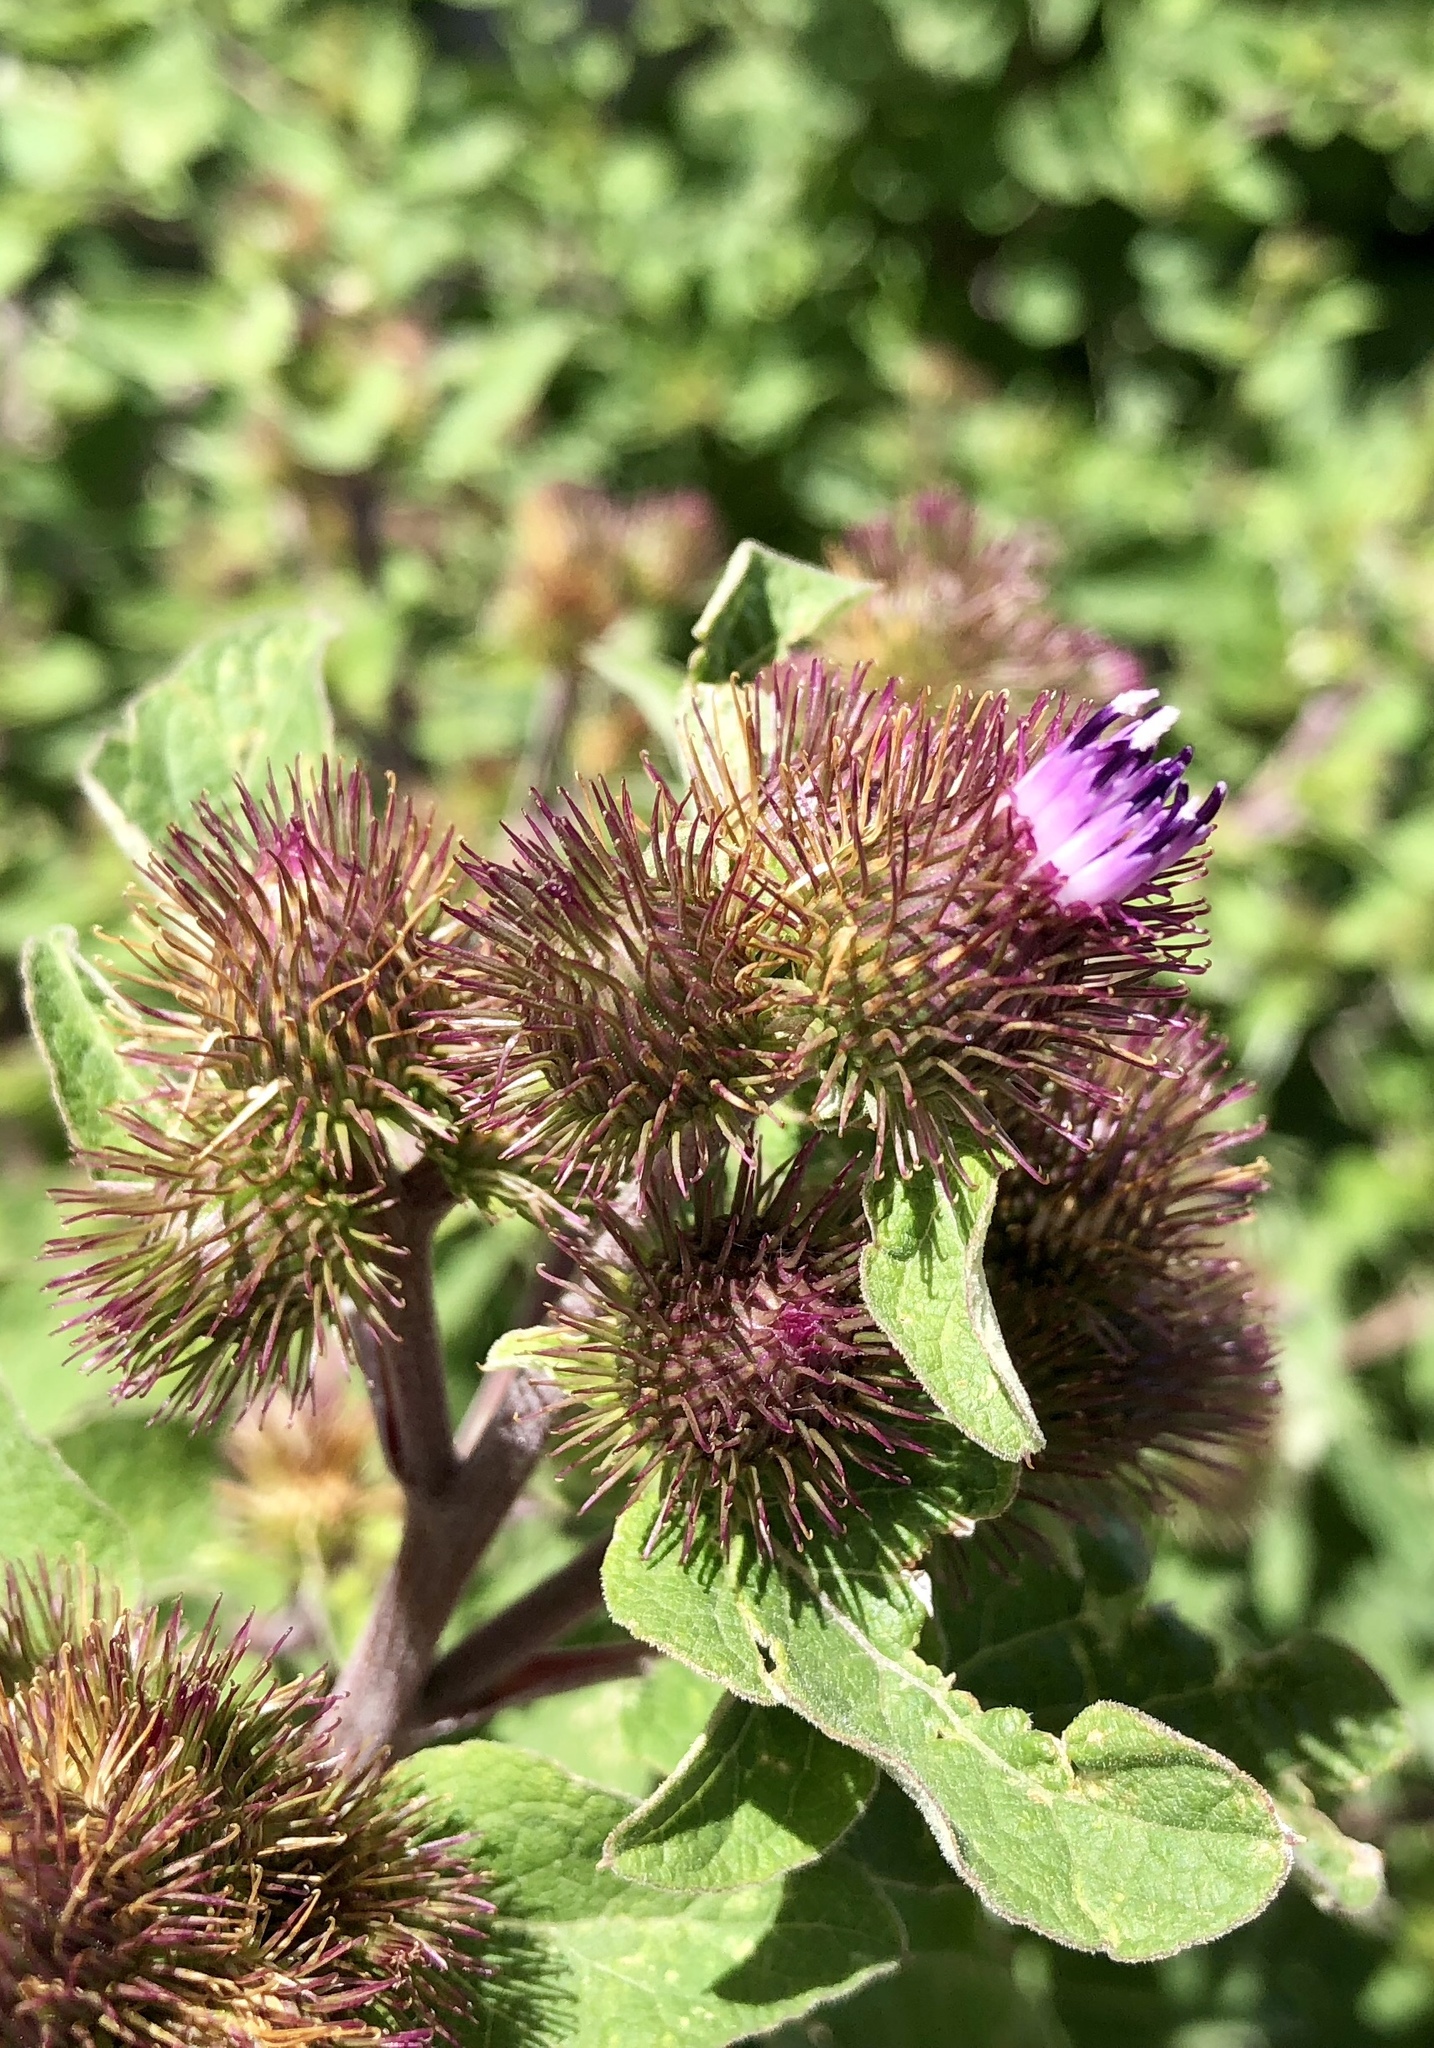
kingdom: Plantae
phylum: Tracheophyta
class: Magnoliopsida
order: Asterales
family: Asteraceae
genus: Arctium
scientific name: Arctium minus
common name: Lesser burdock
